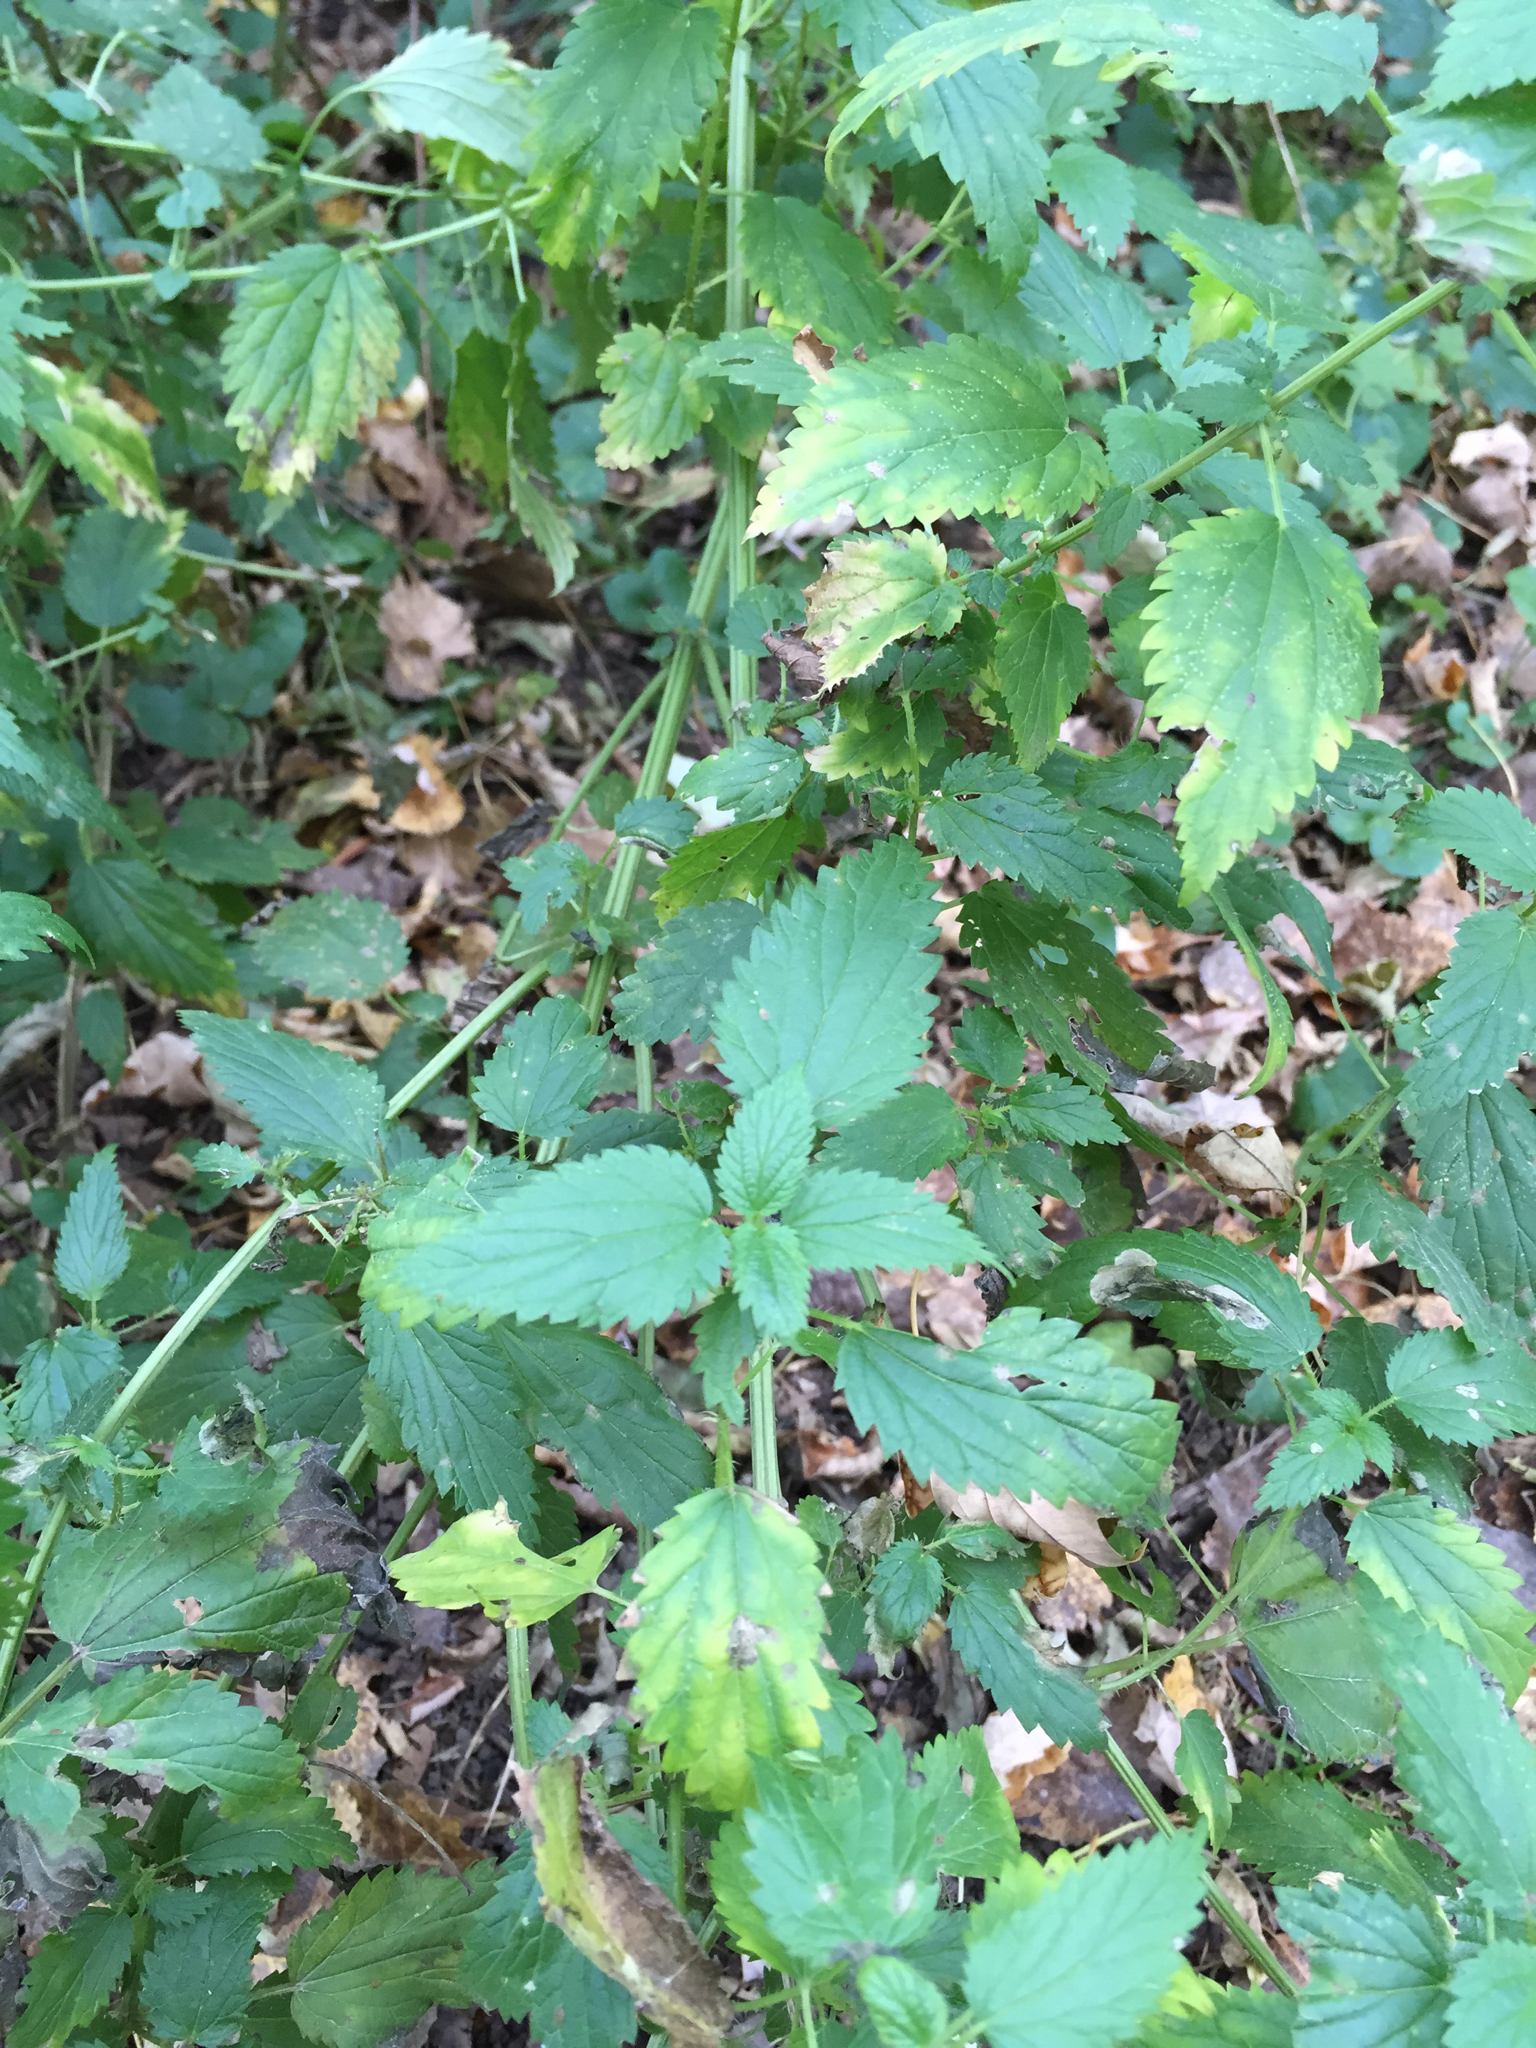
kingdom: Plantae
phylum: Tracheophyta
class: Magnoliopsida
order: Rosales
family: Urticaceae
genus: Urtica
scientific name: Urtica dioica
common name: Common nettle
